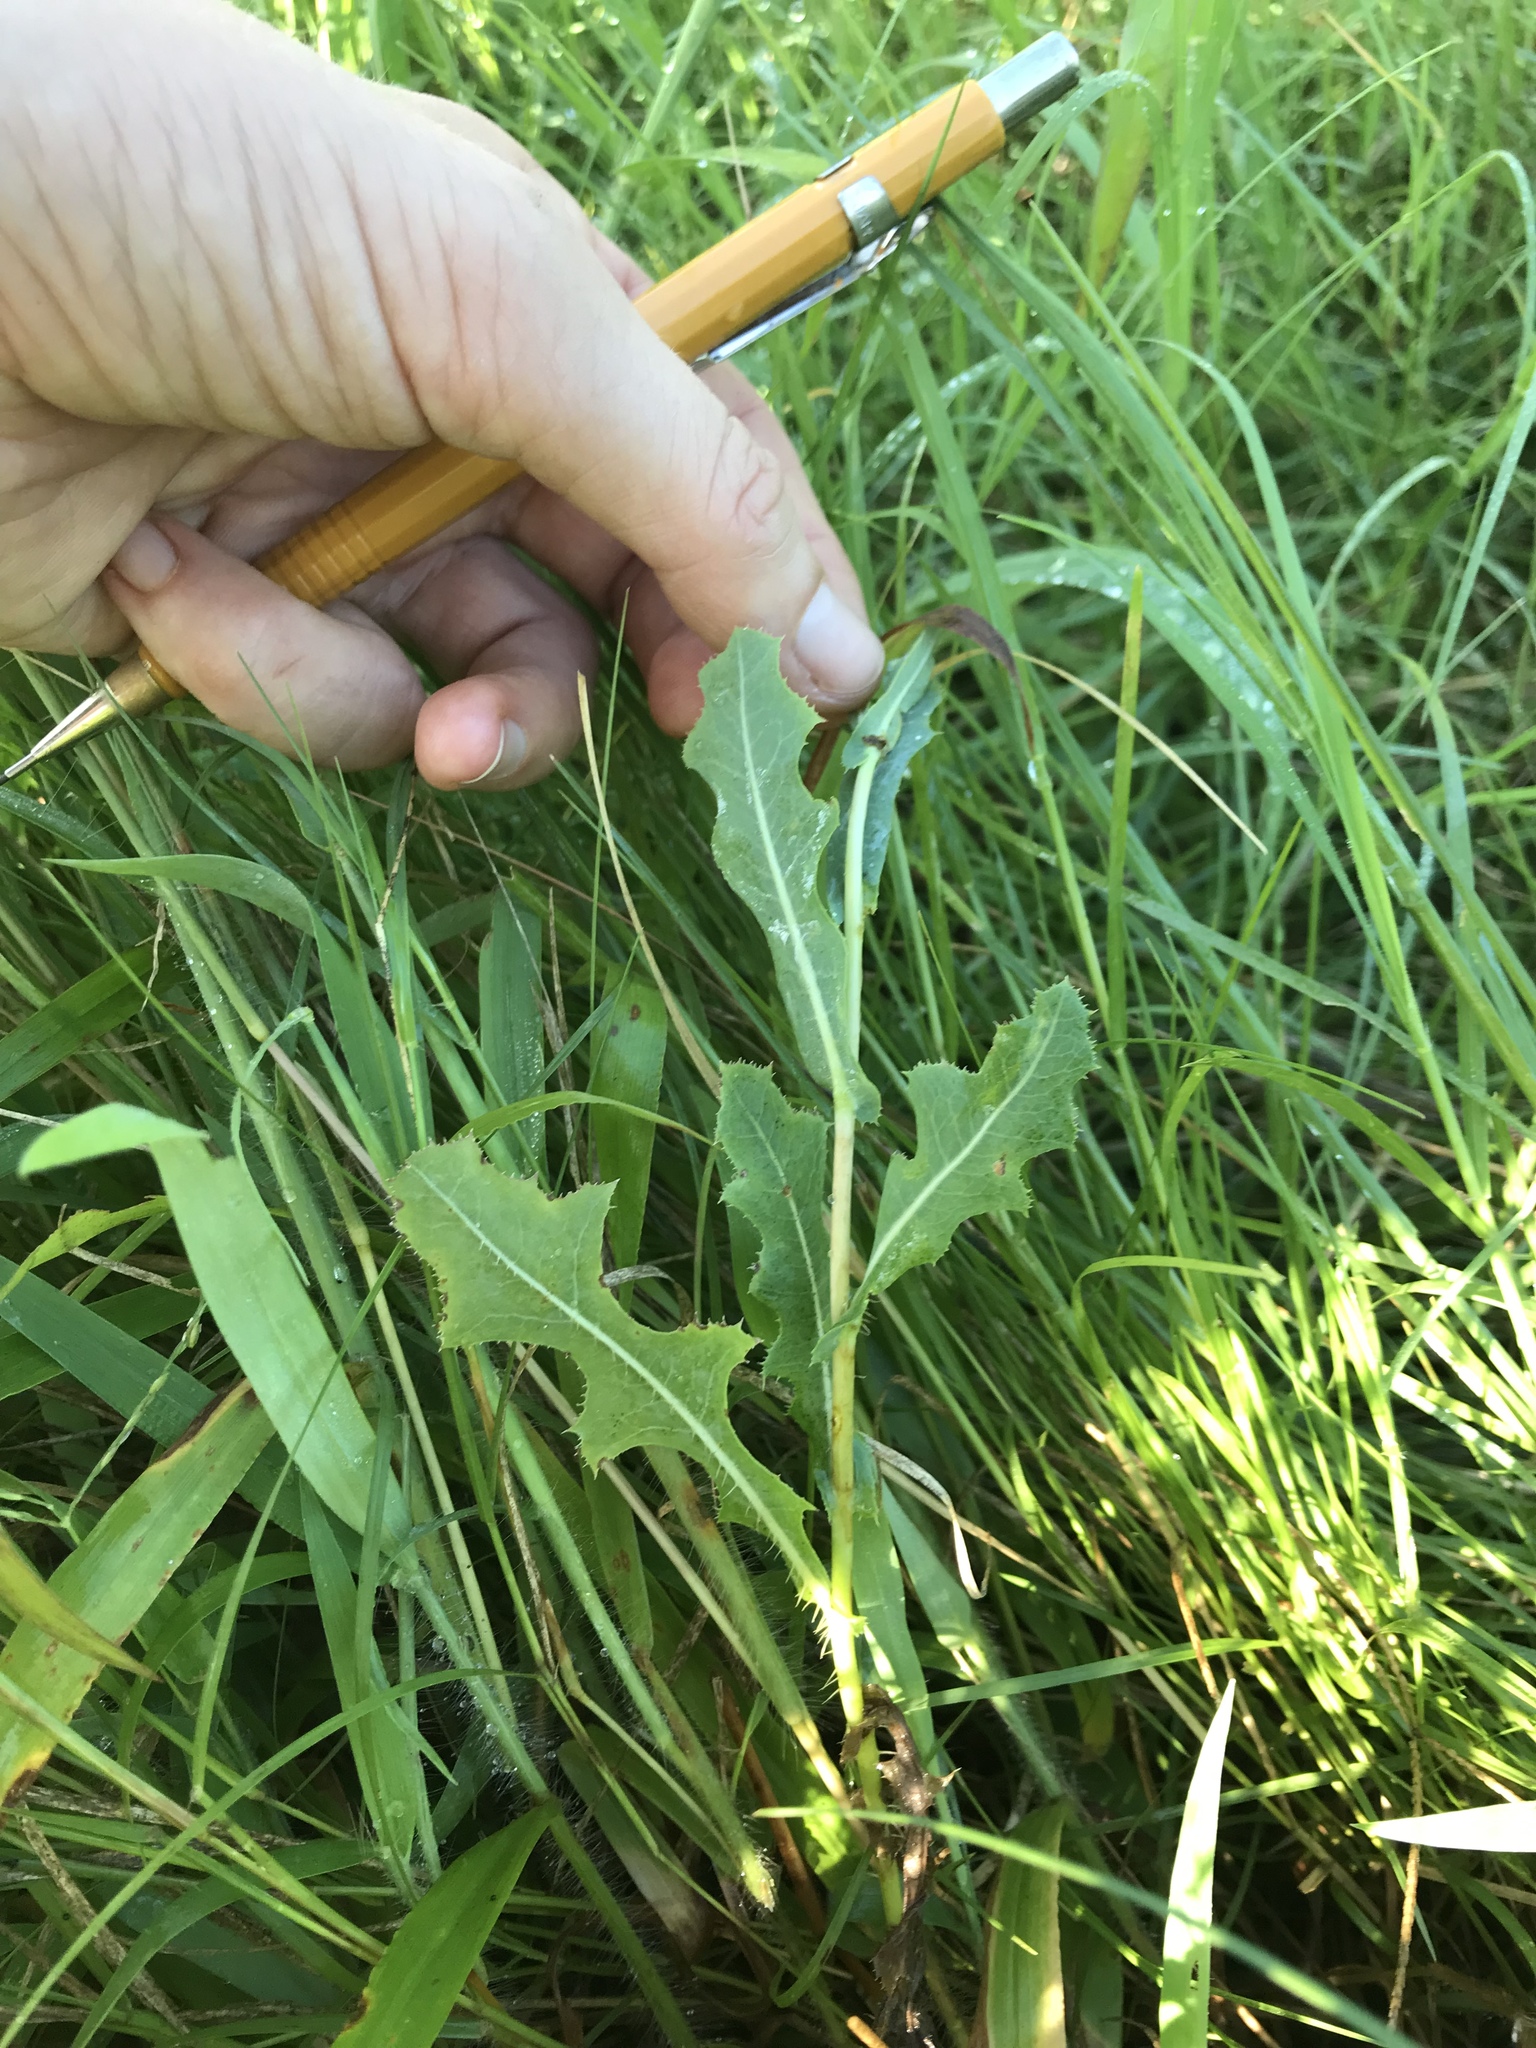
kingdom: Plantae
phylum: Tracheophyta
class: Magnoliopsida
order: Asterales
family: Asteraceae
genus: Lactuca
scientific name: Lactuca serriola
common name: Prickly lettuce
